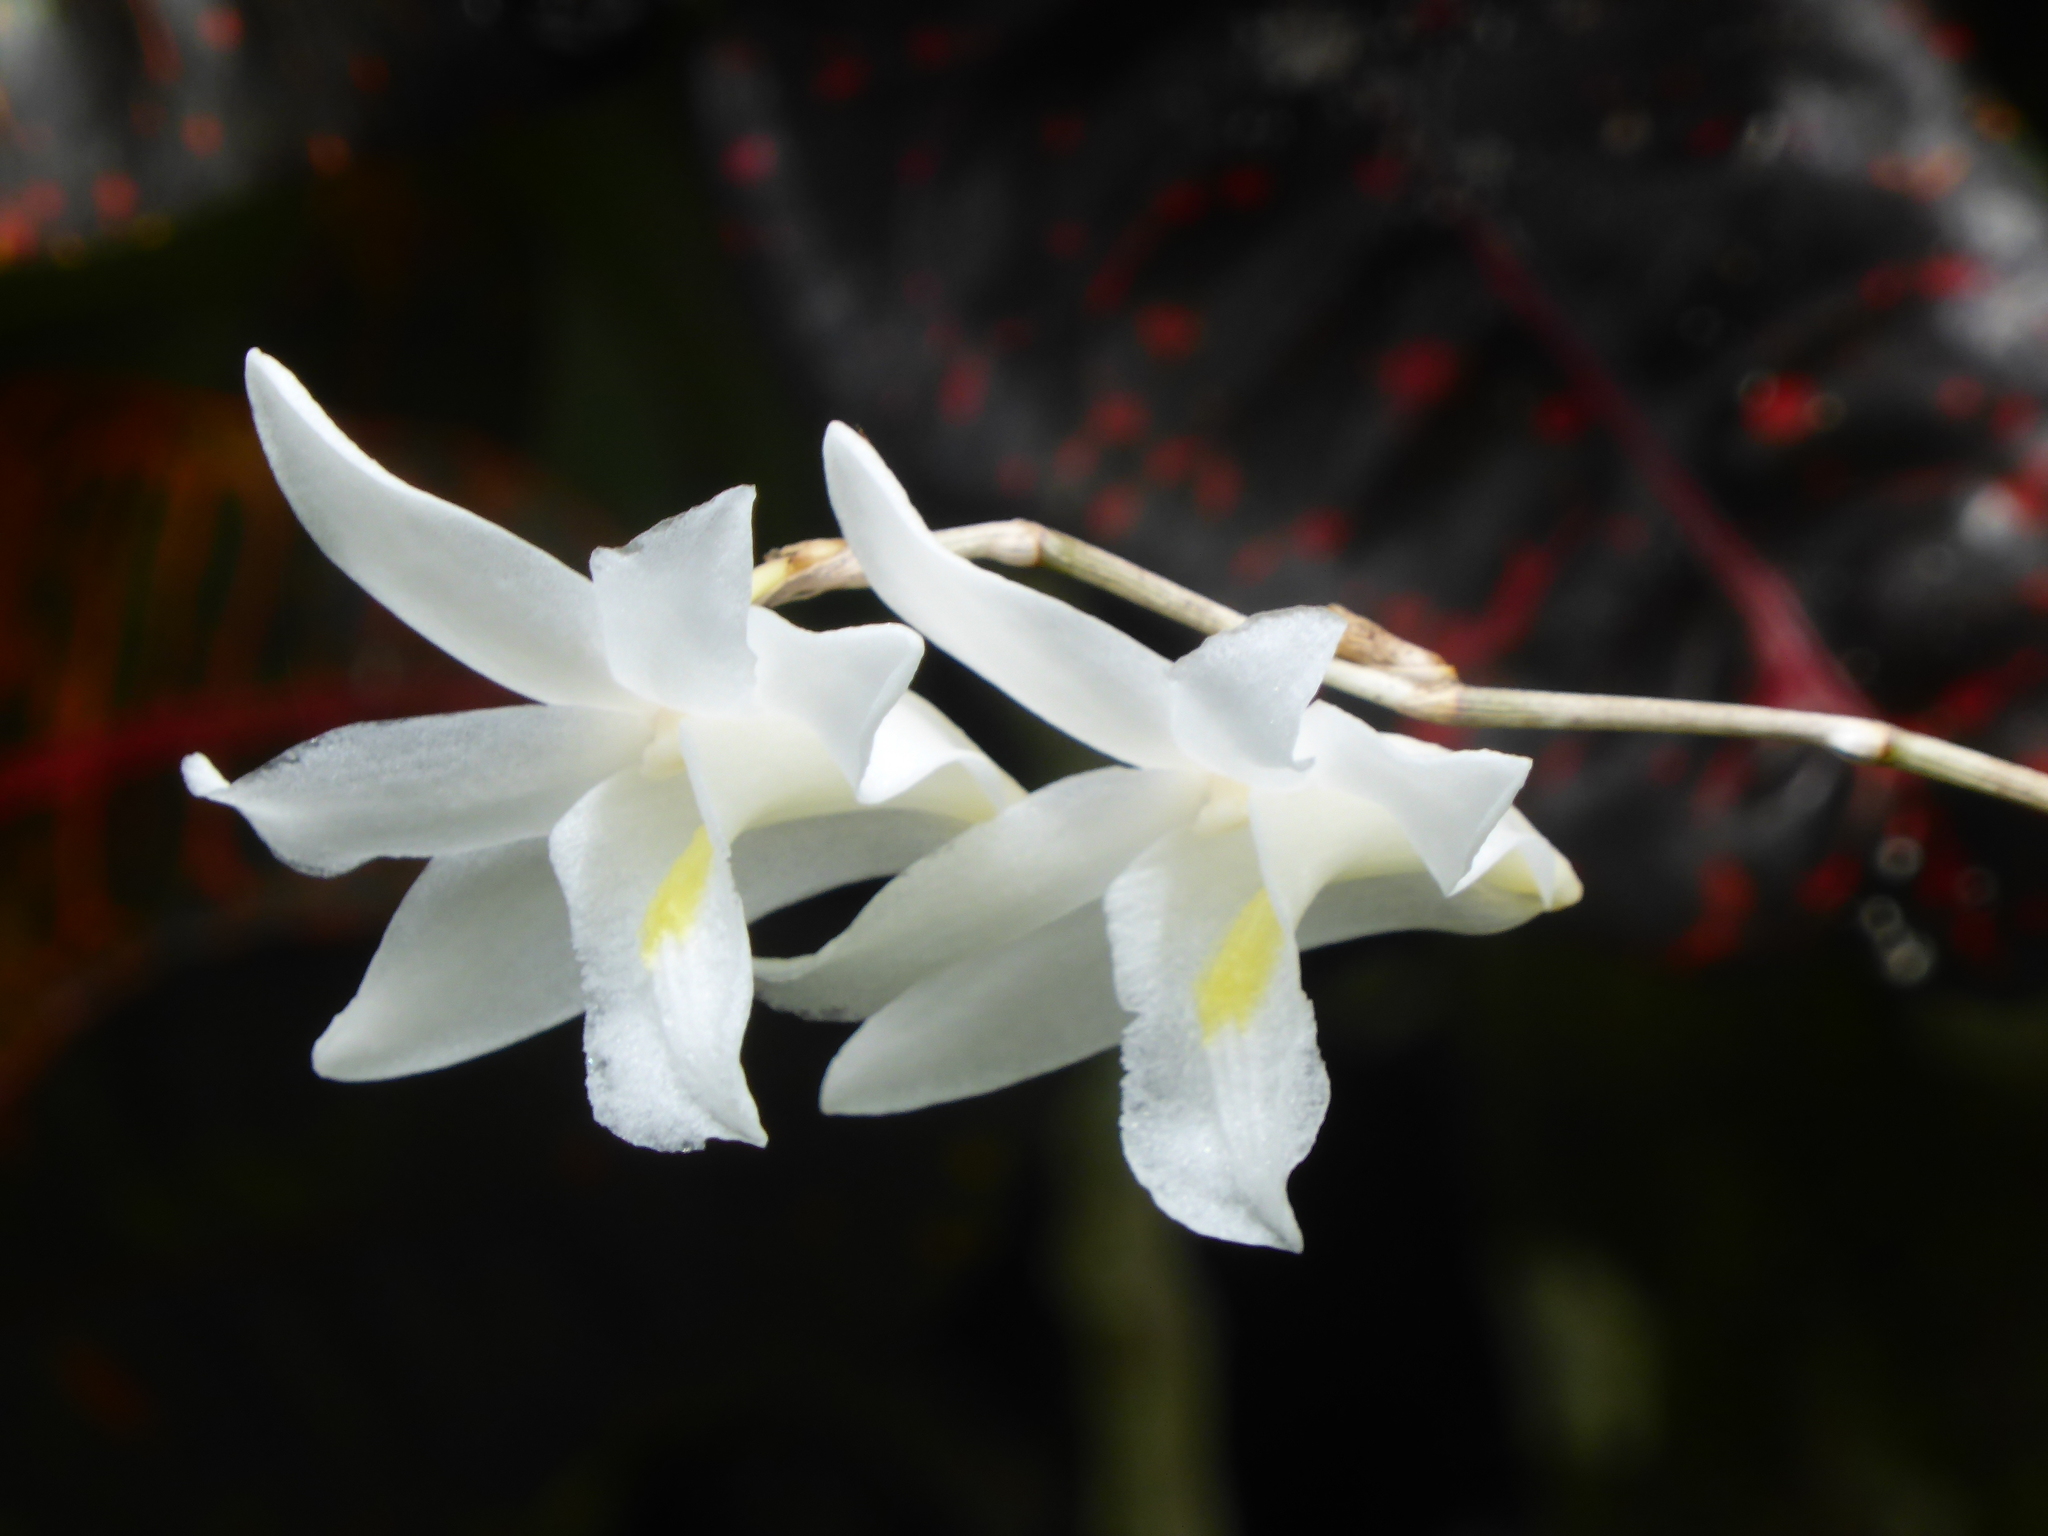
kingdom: Plantae
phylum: Tracheophyta
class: Liliopsida
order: Asparagales
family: Orchidaceae
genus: Dendrobium
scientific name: Dendrobium crumenatum
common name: Orchid
